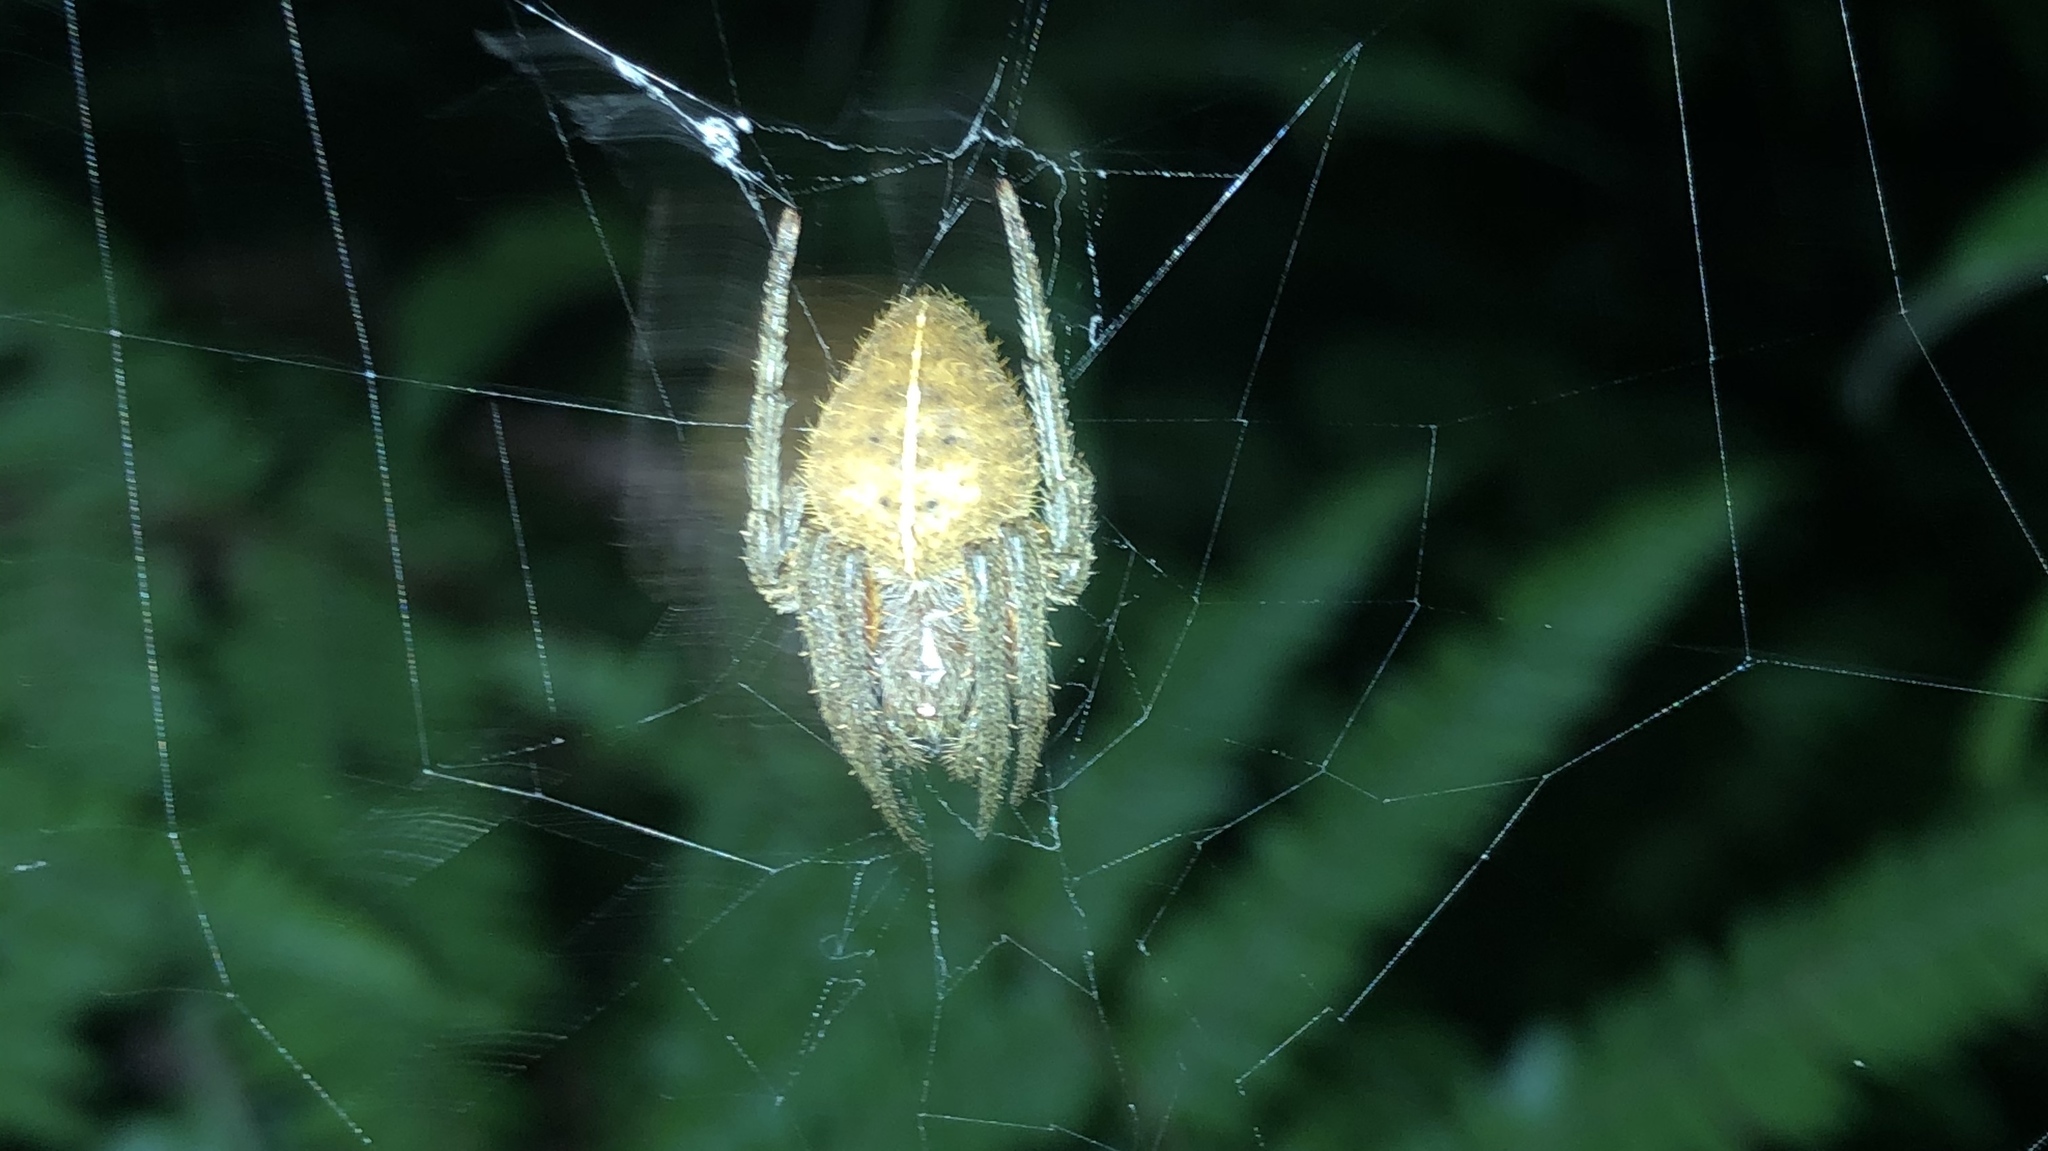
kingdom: Animalia
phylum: Arthropoda
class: Arachnida
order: Araneae
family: Araneidae
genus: Eriophora
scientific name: Eriophora ravilla
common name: Orb weavers
